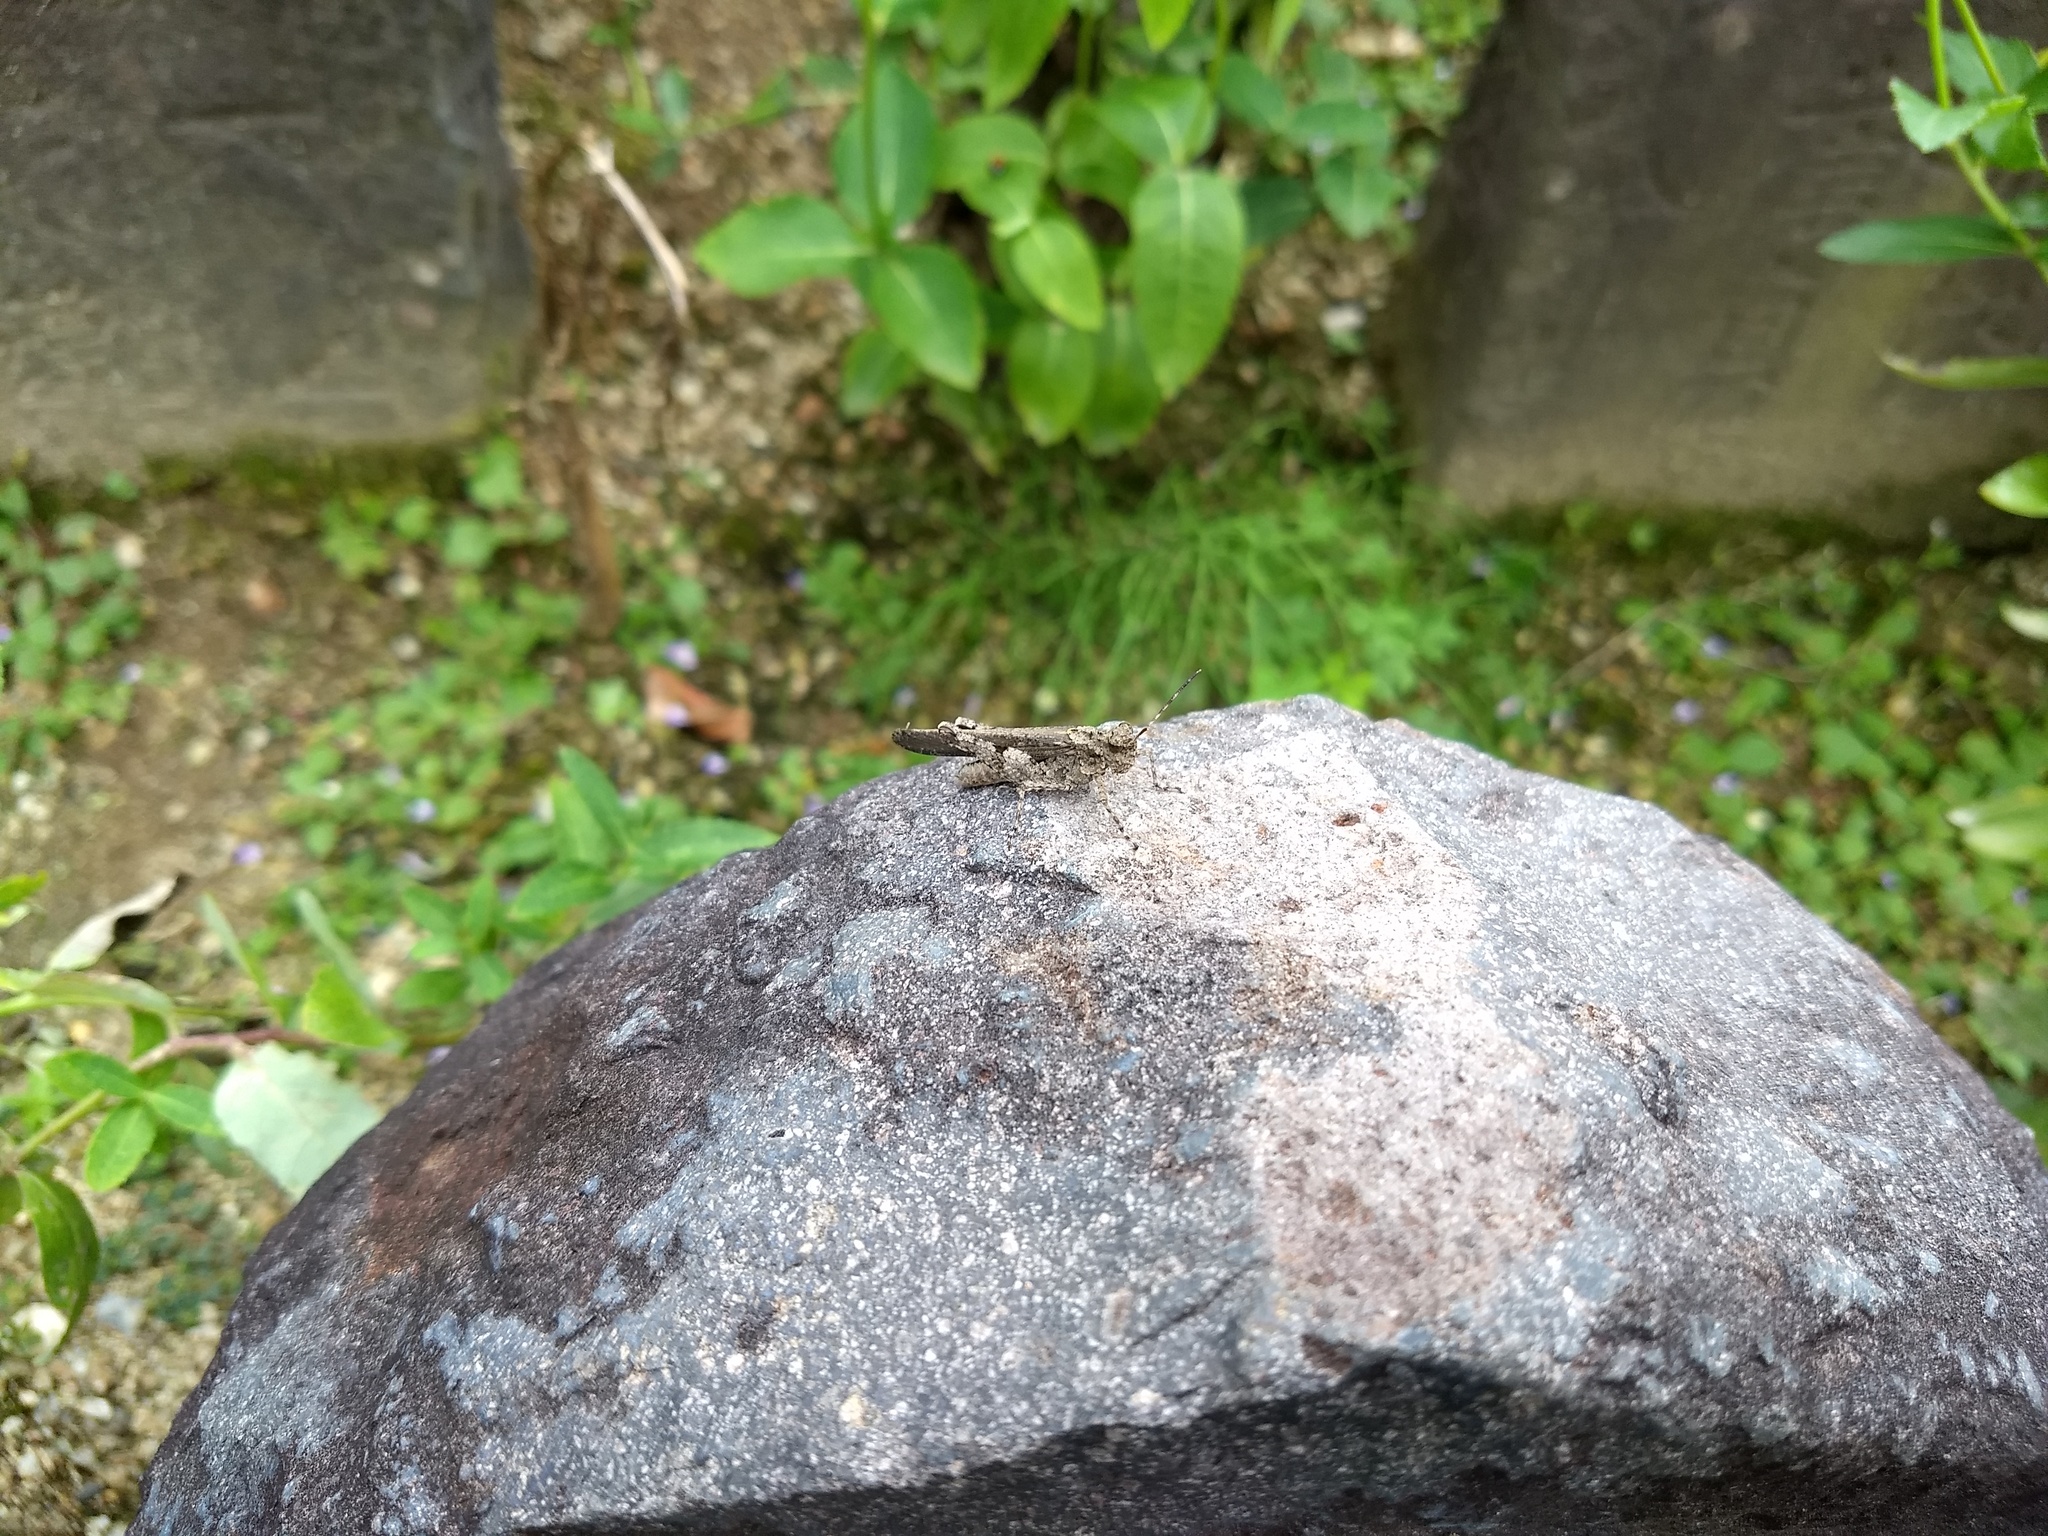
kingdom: Animalia
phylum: Arthropoda
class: Insecta
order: Orthoptera
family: Acrididae
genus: Trilophidia
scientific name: Trilophidia annulata
